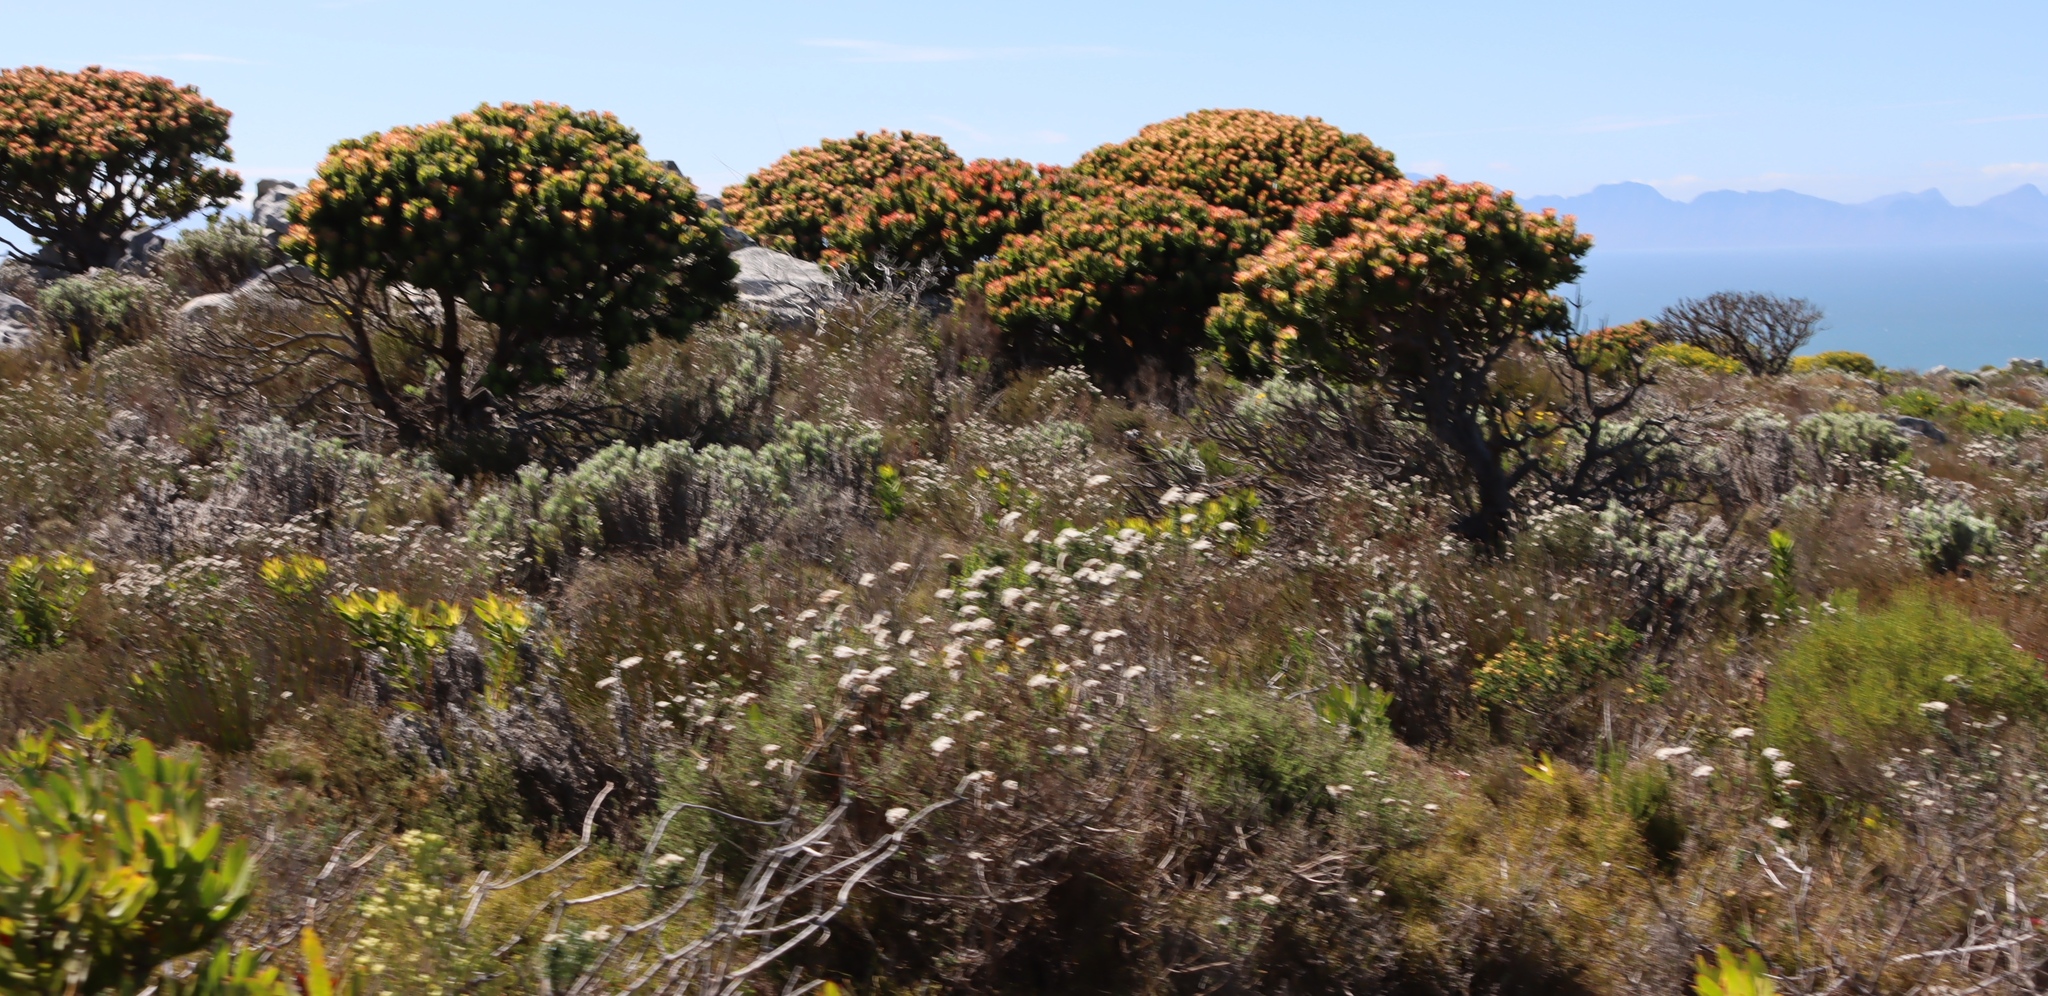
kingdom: Plantae
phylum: Tracheophyta
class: Magnoliopsida
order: Proteales
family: Proteaceae
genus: Mimetes
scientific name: Mimetes fimbriifolius
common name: Fringed bottlebrush
